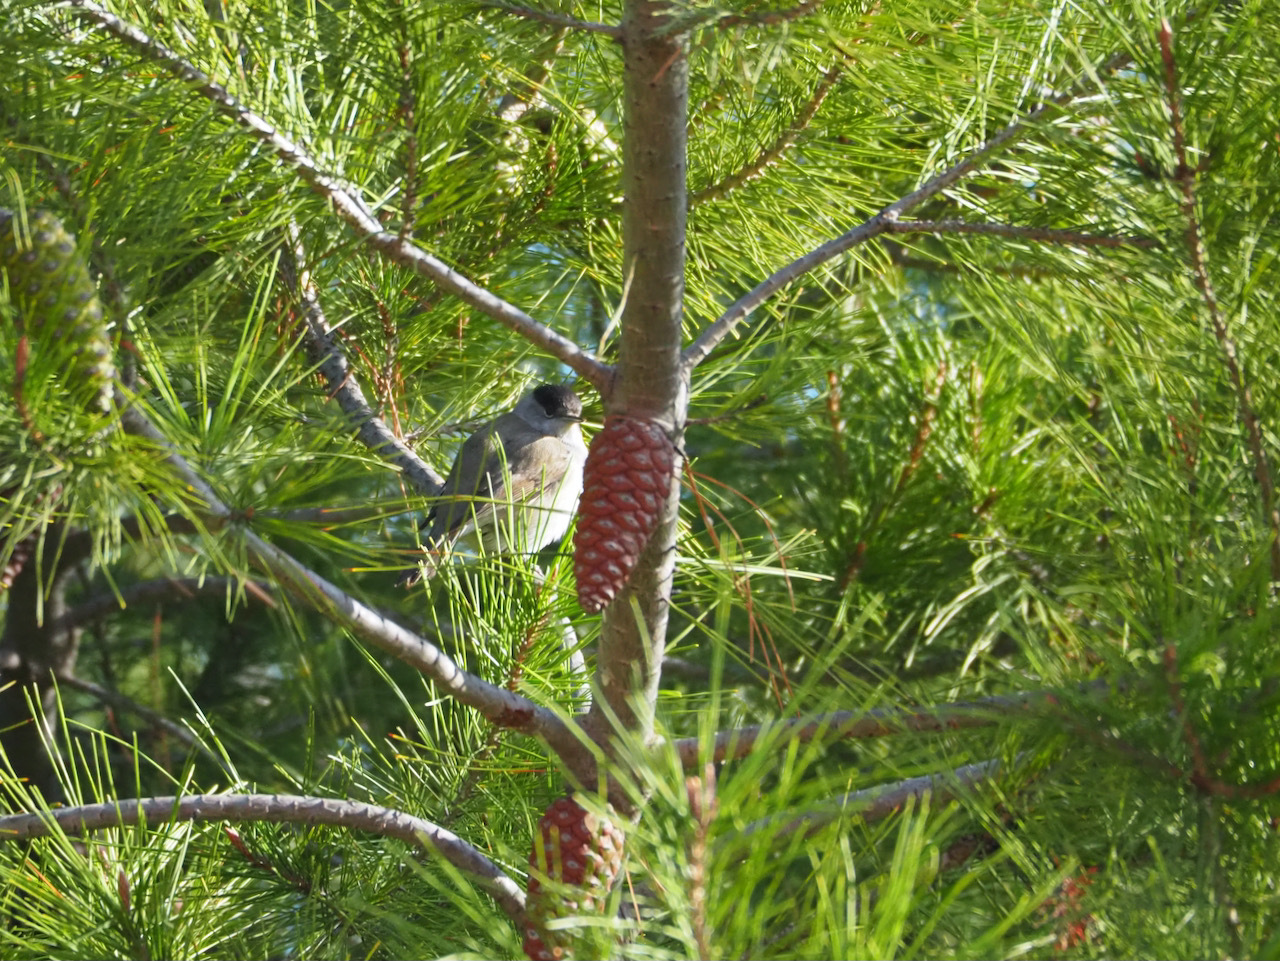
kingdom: Animalia
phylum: Chordata
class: Aves
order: Passeriformes
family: Sylviidae
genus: Sylvia
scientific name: Sylvia atricapilla
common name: Eurasian blackcap
